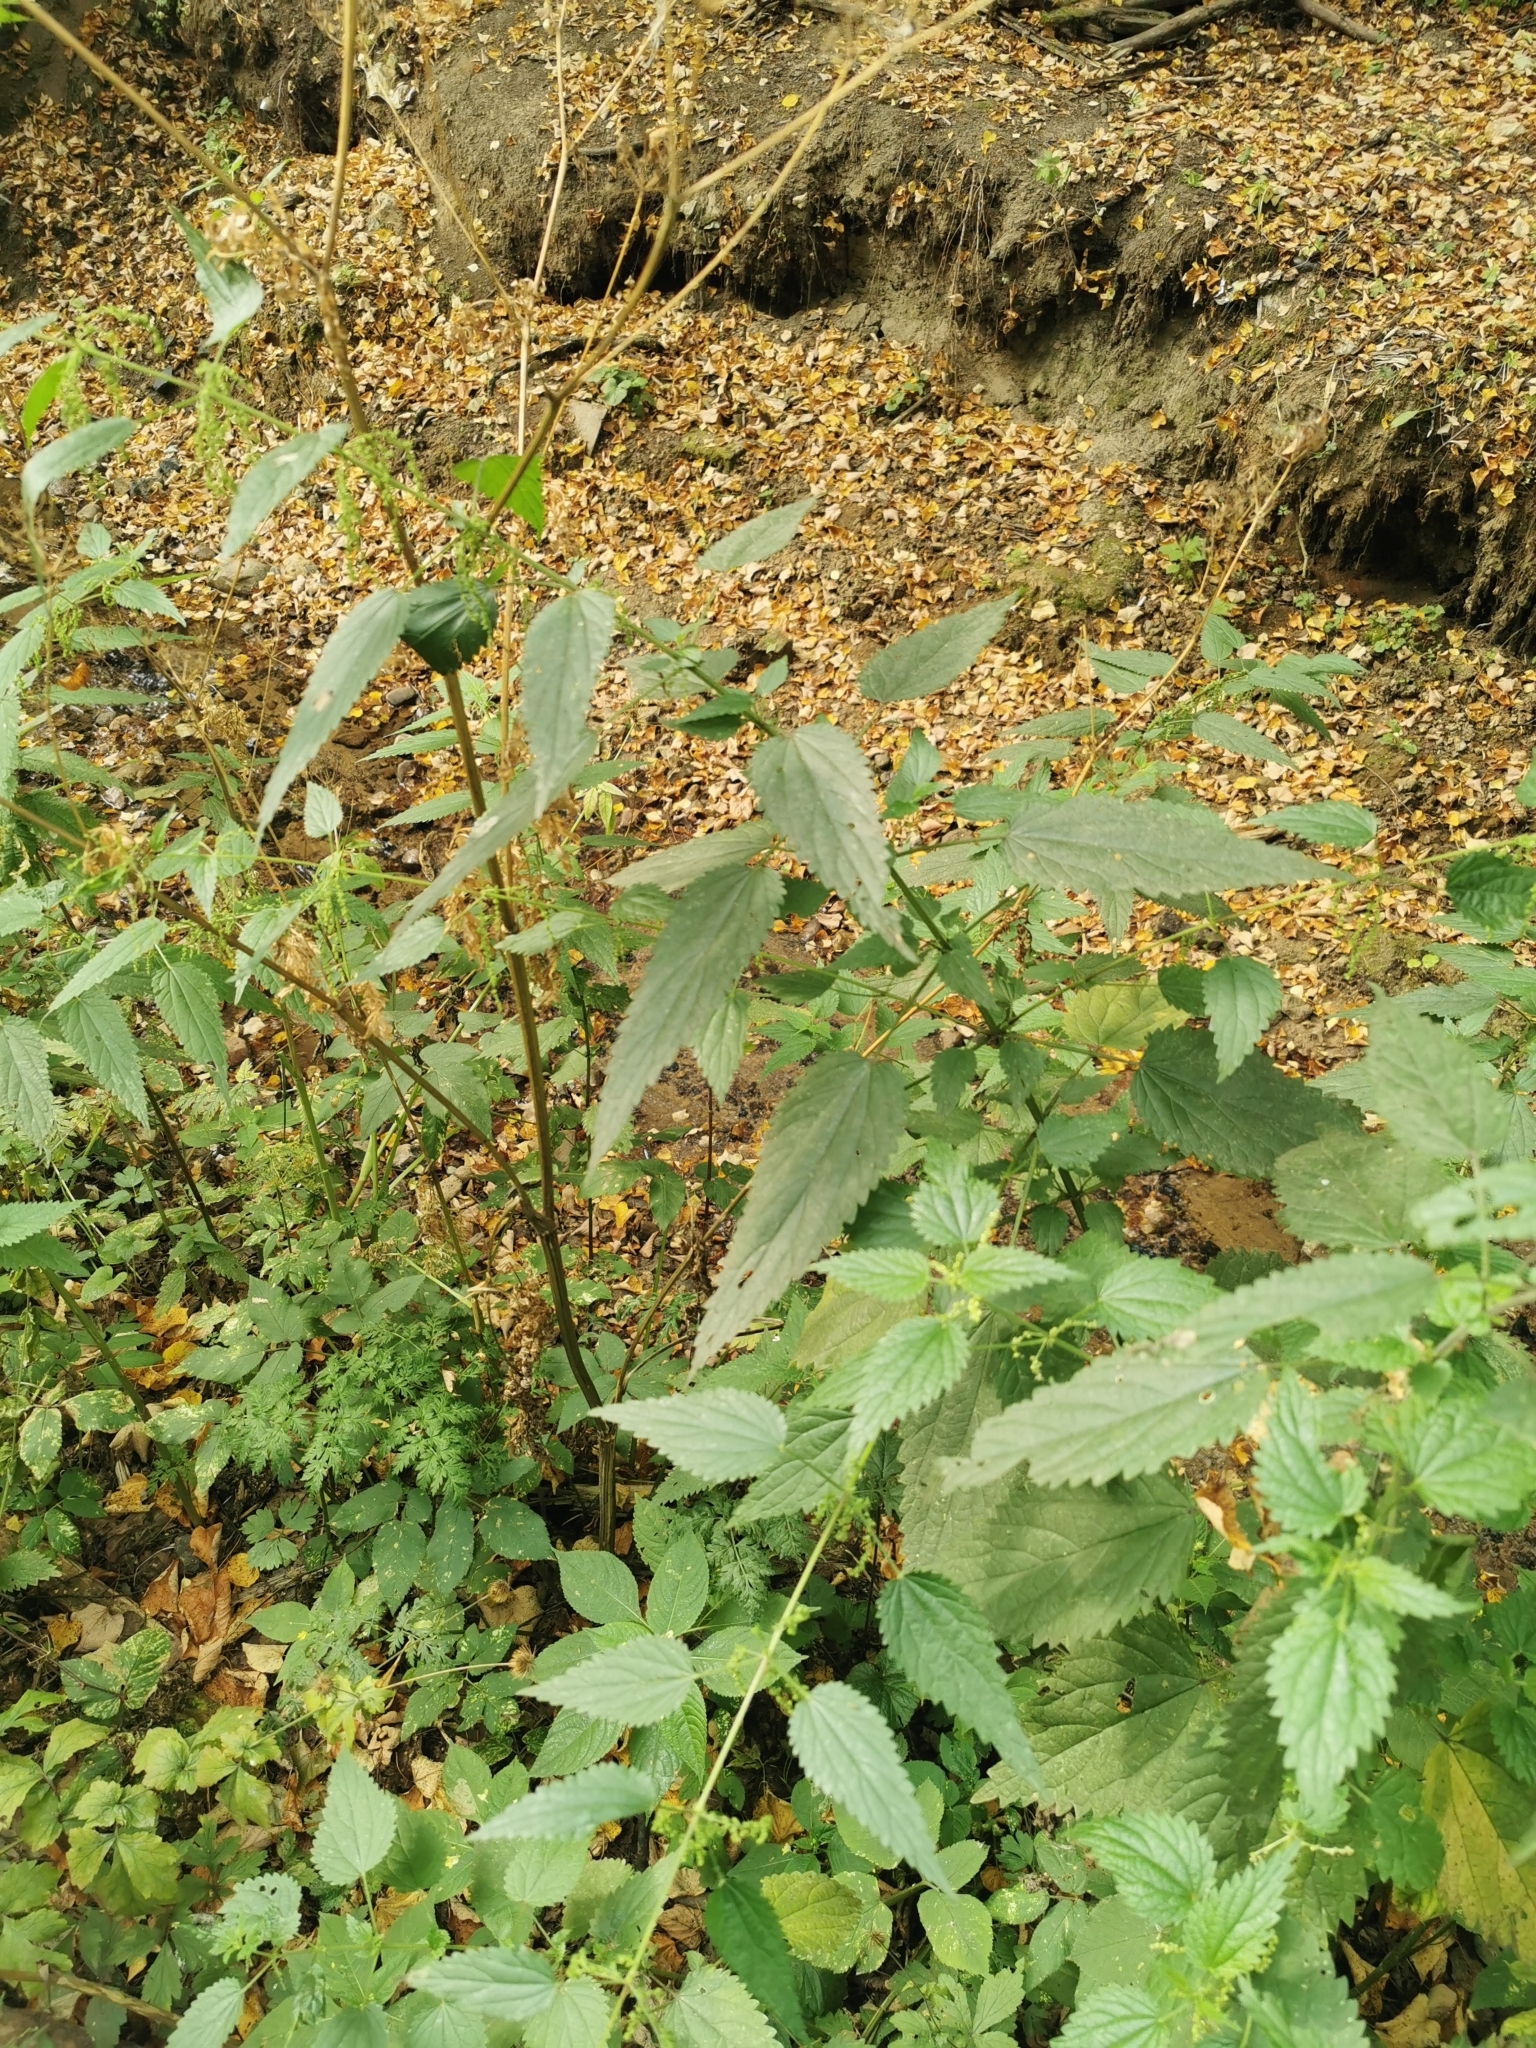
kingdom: Plantae
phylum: Tracheophyta
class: Magnoliopsida
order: Rosales
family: Urticaceae
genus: Urtica
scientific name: Urtica dioica
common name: Common nettle
